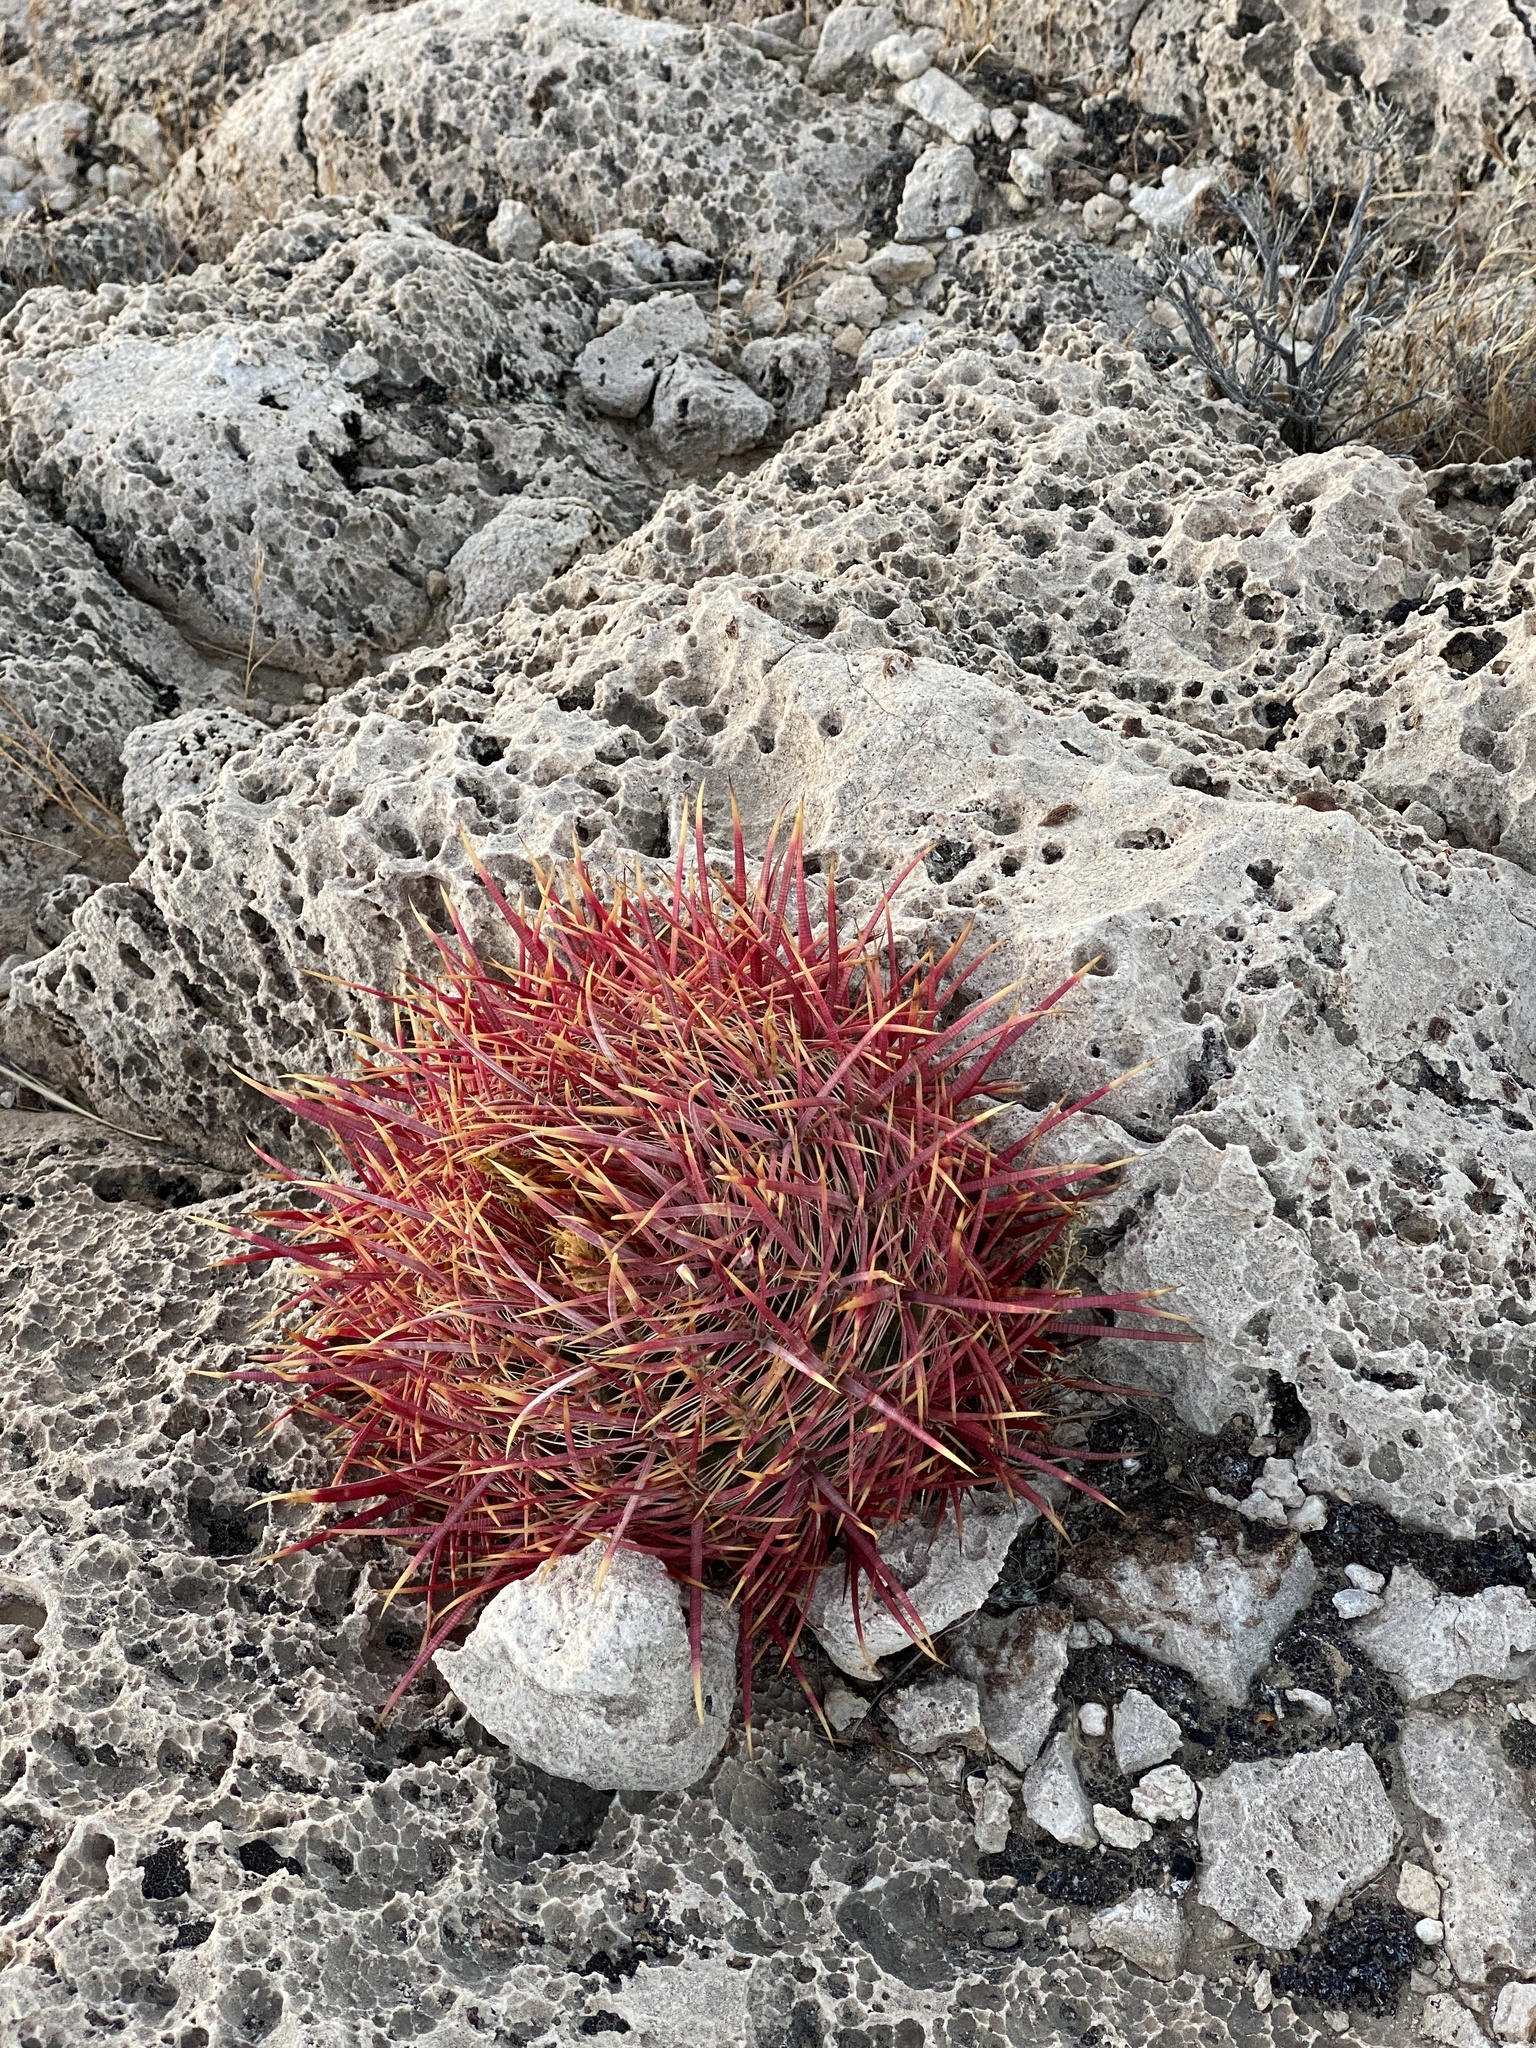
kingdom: Plantae
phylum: Tracheophyta
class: Magnoliopsida
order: Caryophyllales
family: Cactaceae
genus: Ferocactus
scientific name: Ferocactus cylindraceus
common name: California barrel cactus
